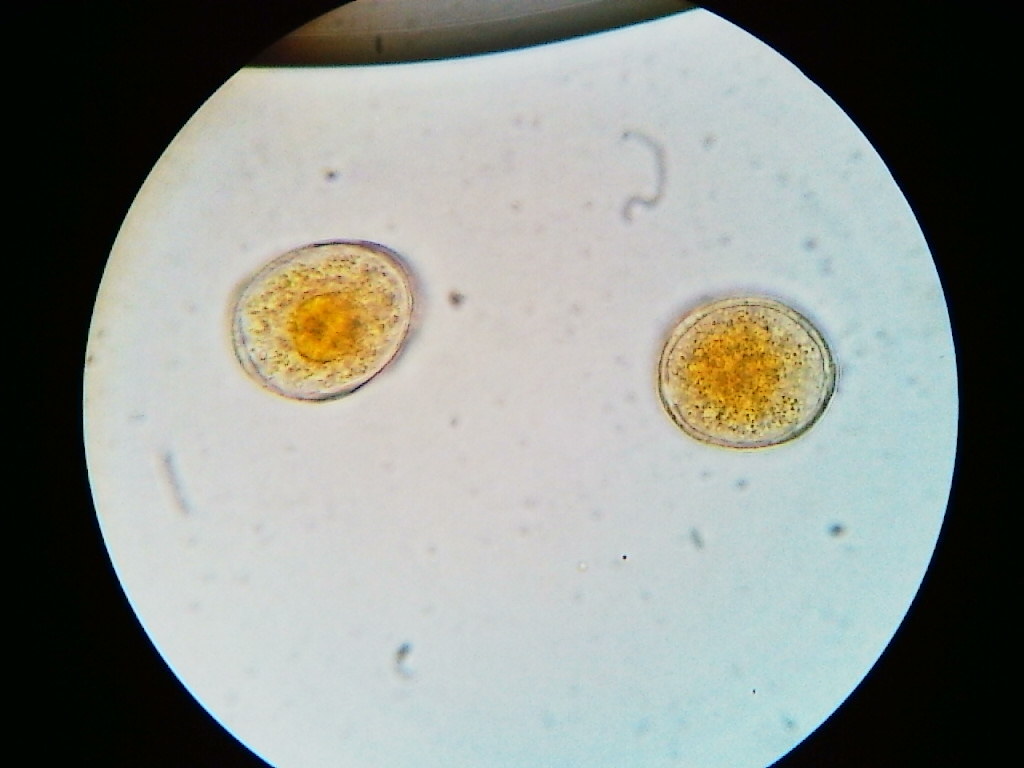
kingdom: Fungi
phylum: Basidiomycota
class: Pucciniomycetes
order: Pucciniales
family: Pucciniaceae
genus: Puccinia
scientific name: Puccinia asparagi
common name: Asparagus rust
